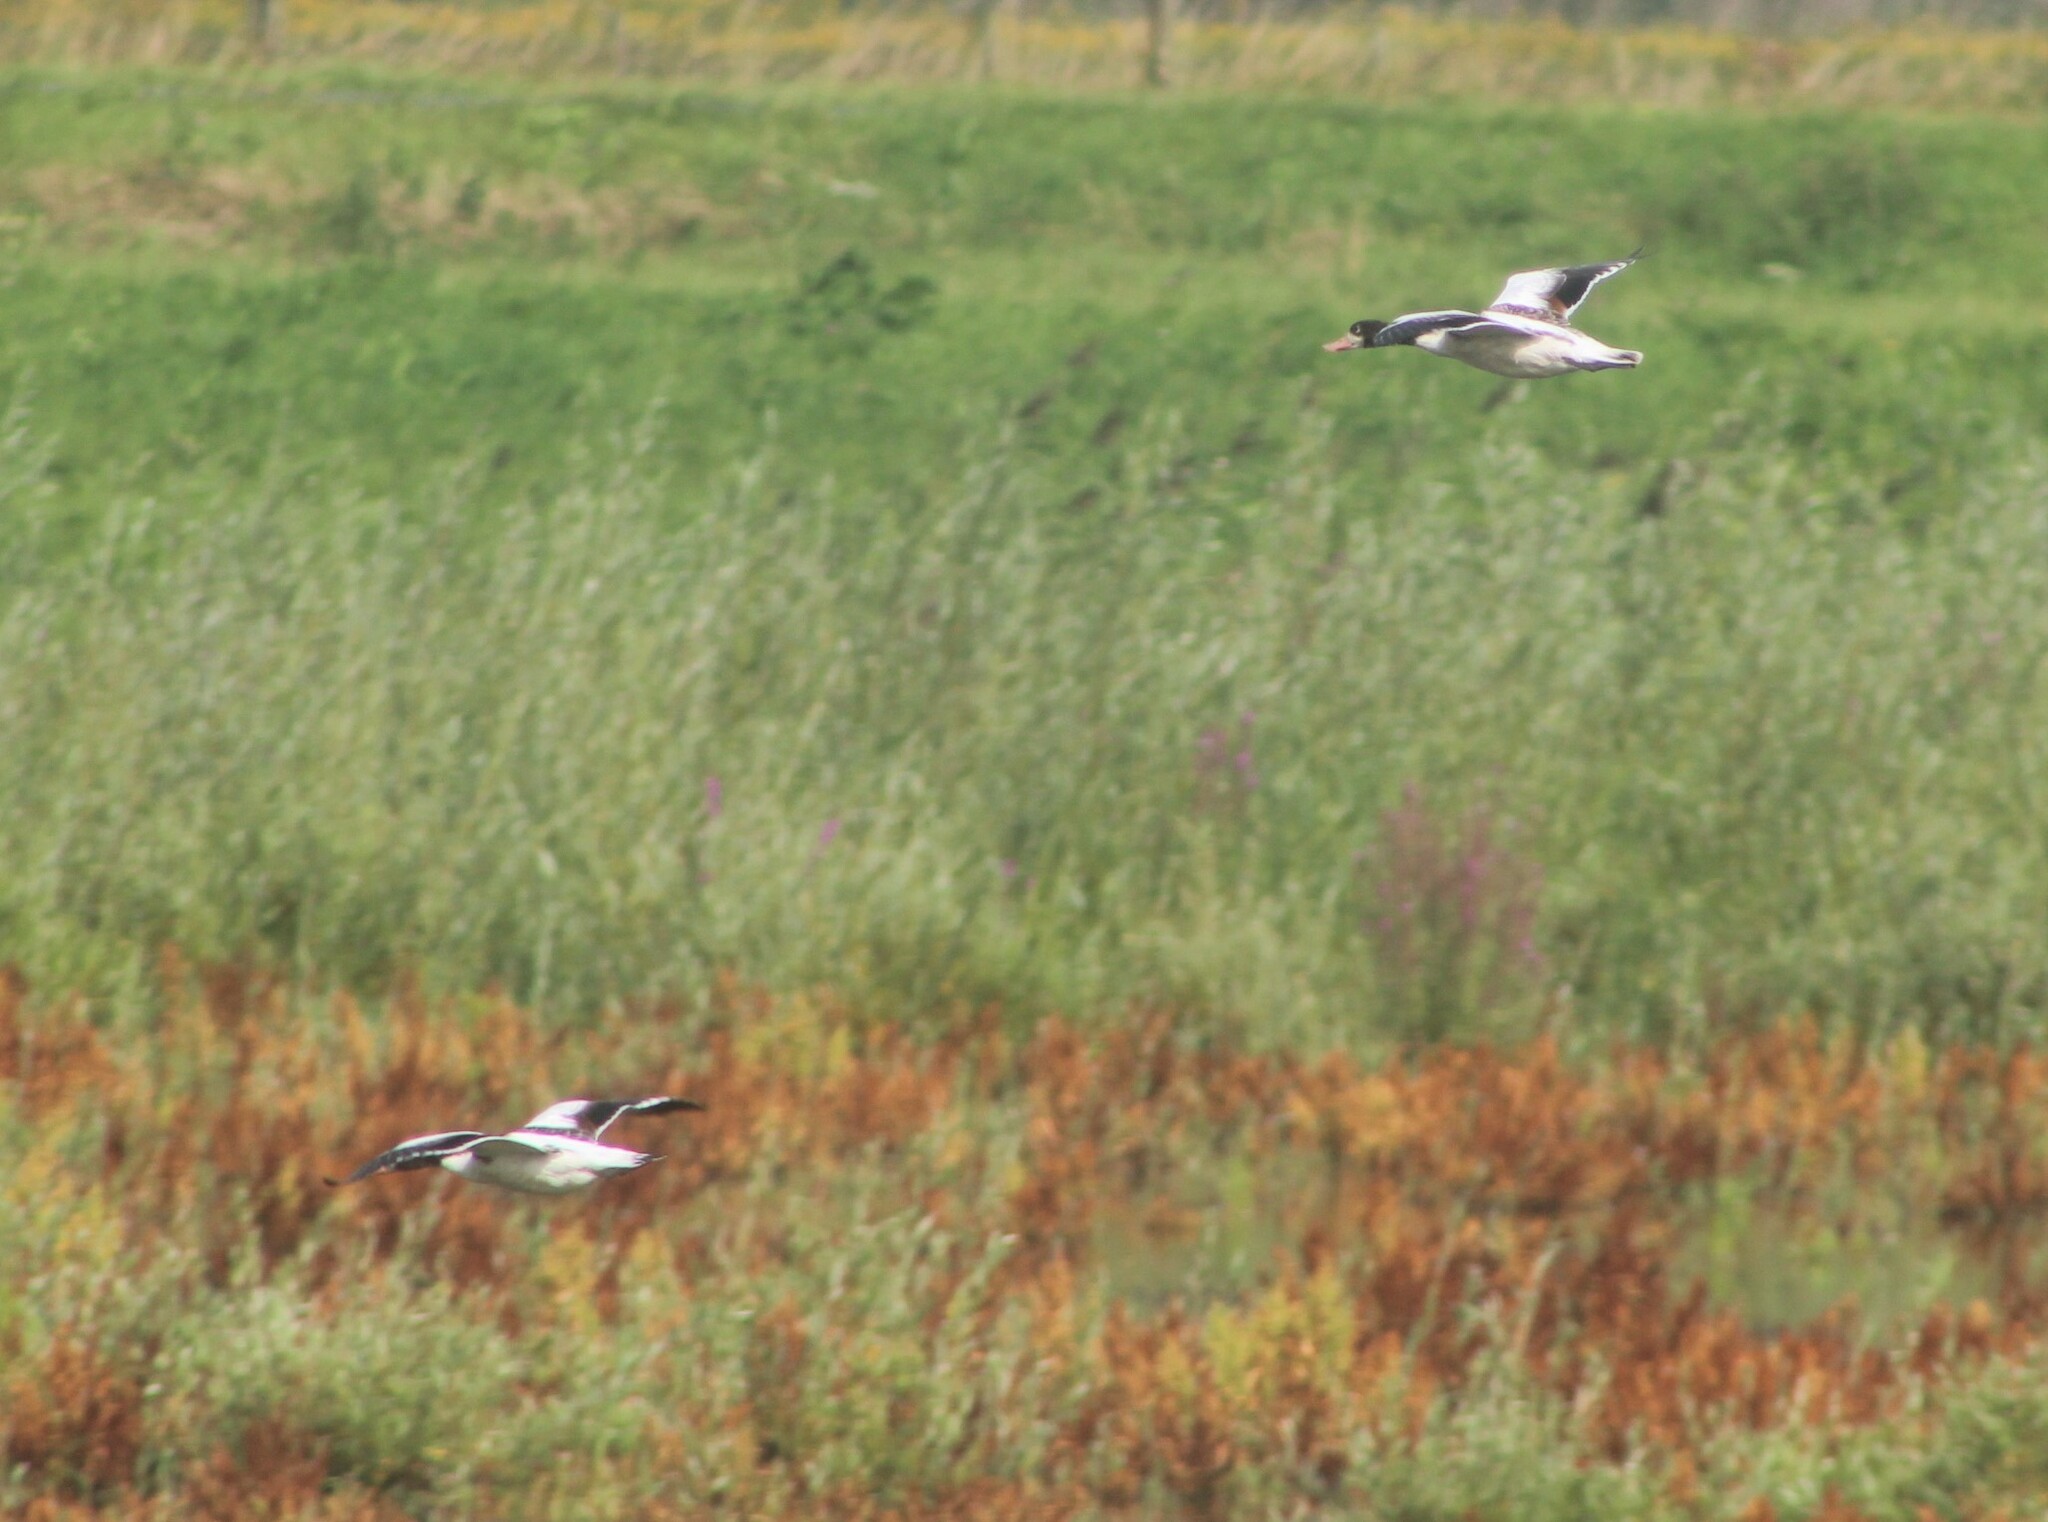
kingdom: Animalia
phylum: Chordata
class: Aves
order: Anseriformes
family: Anatidae
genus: Tadorna
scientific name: Tadorna tadorna
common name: Common shelduck
